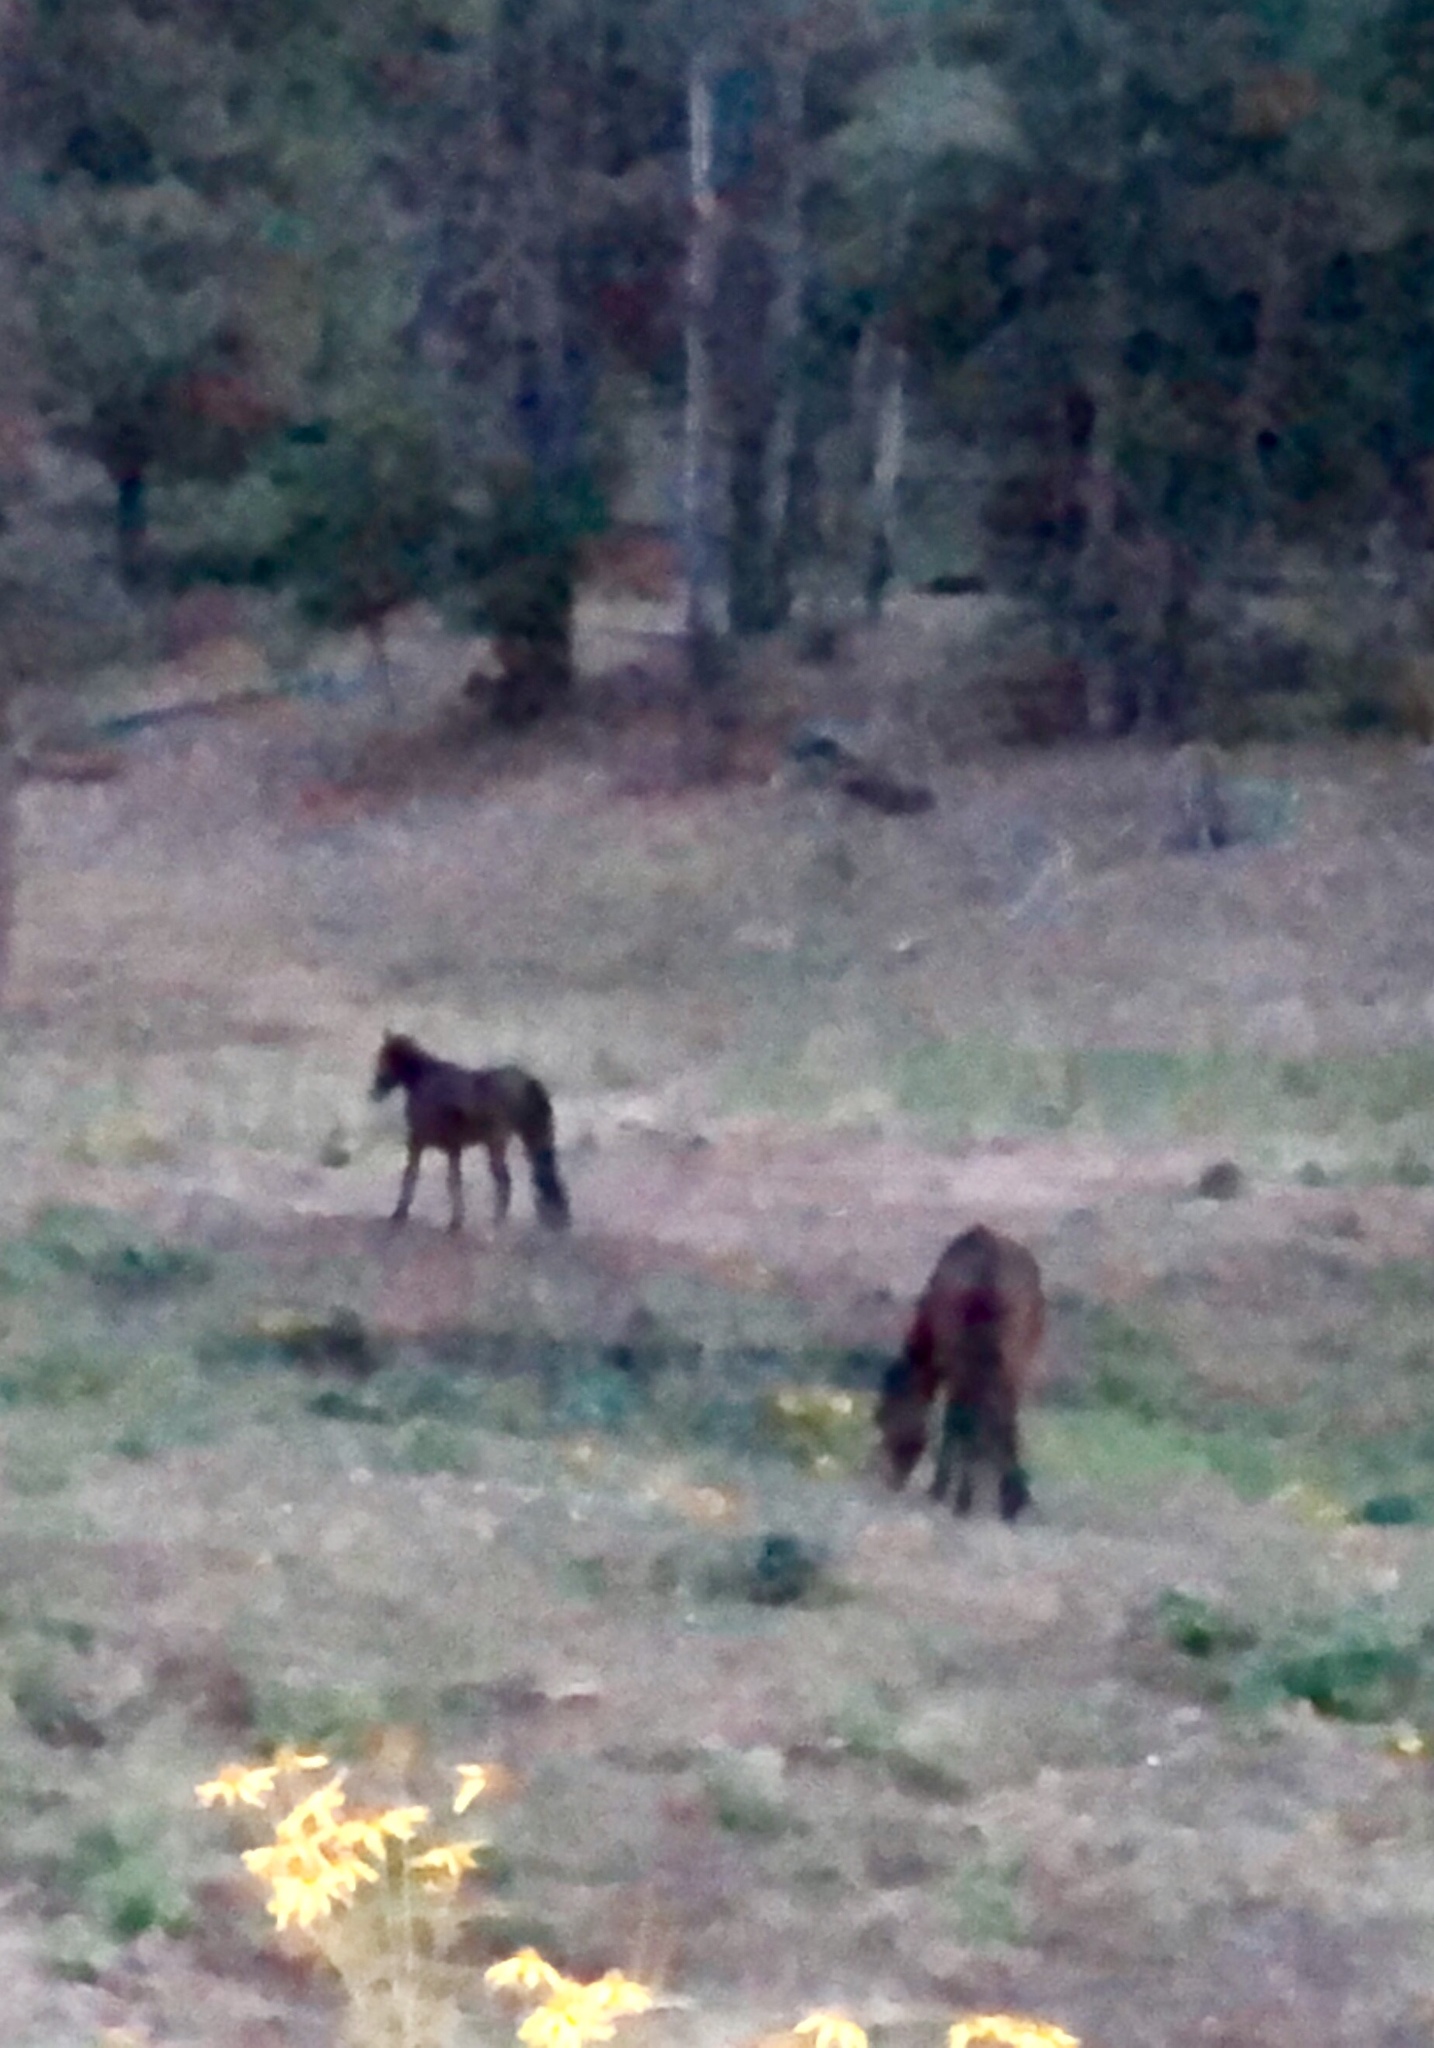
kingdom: Animalia
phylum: Chordata
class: Mammalia
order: Perissodactyla
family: Equidae
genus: Equus
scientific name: Equus caballus
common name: Horse
